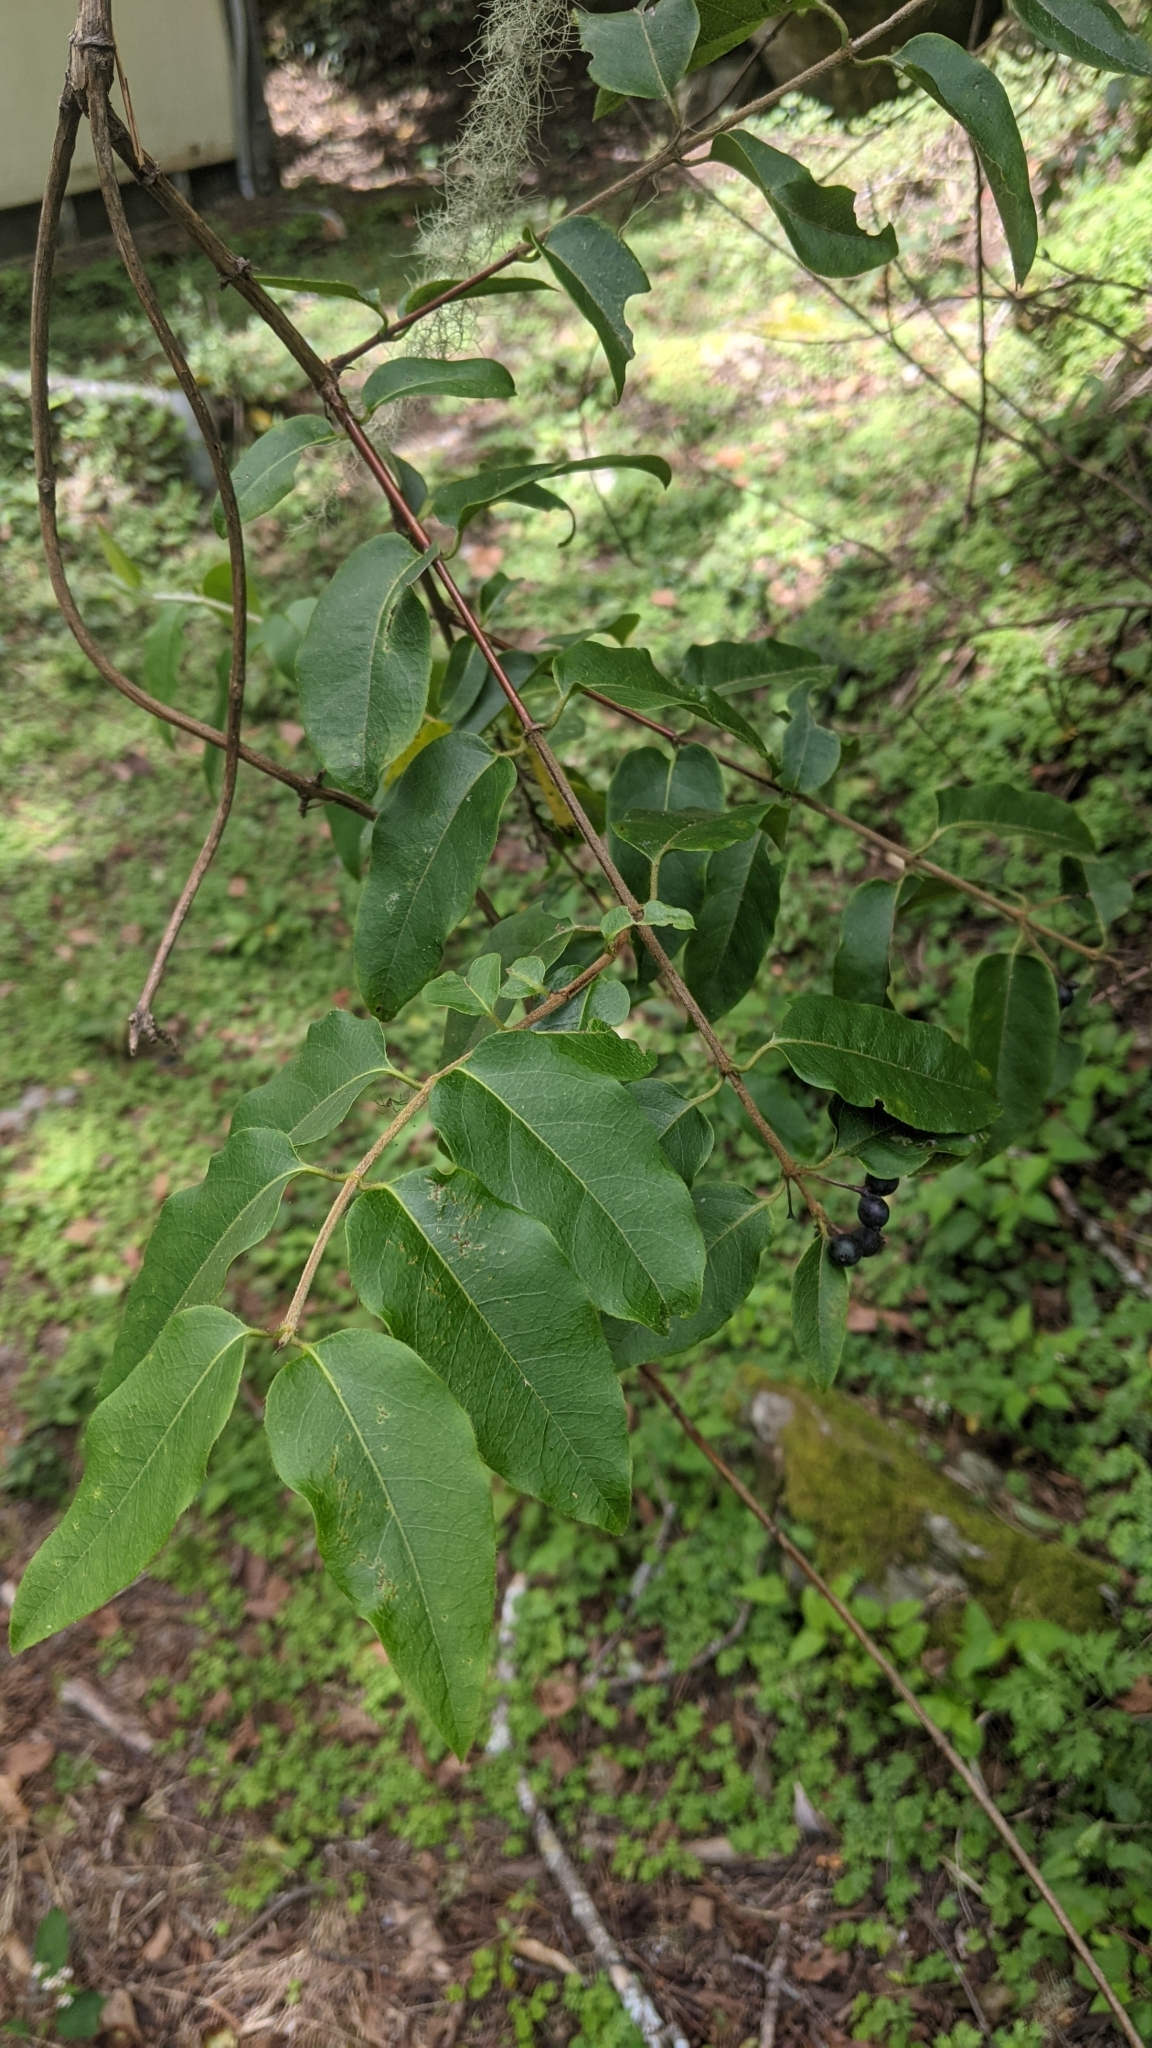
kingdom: Plantae
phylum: Tracheophyta
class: Magnoliopsida
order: Dipsacales
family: Caprifoliaceae
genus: Lonicera
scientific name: Lonicera acuminata
